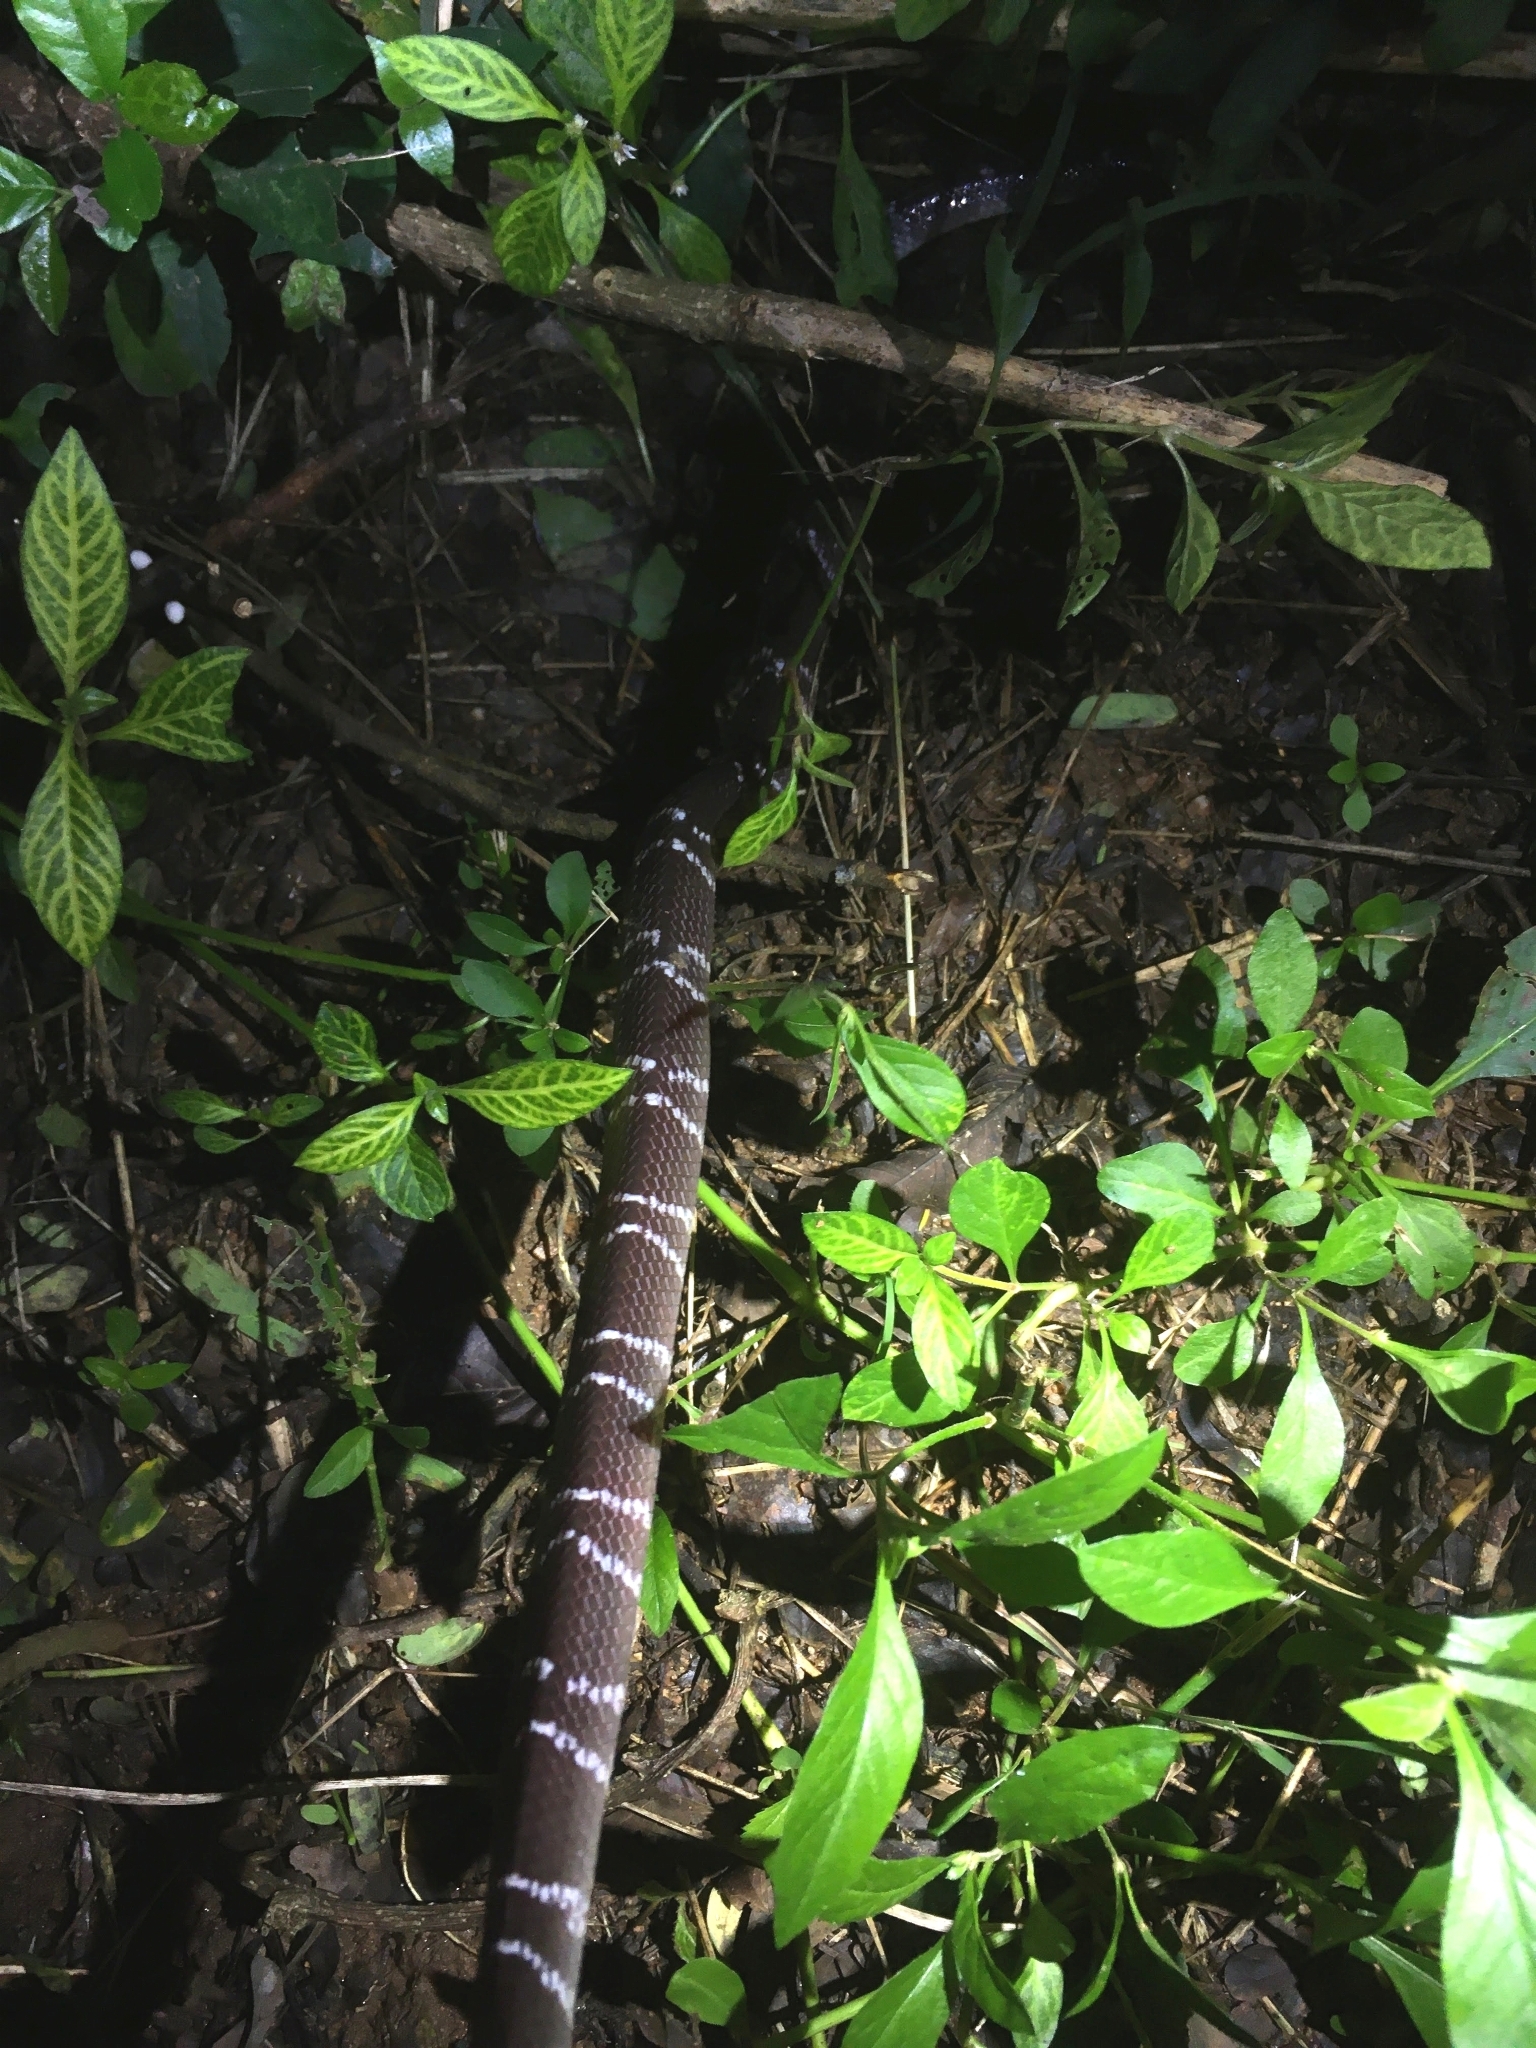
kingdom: Animalia
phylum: Chordata
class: Squamata
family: Elapidae
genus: Bungarus
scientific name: Bungarus caeruleus
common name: Common krait
